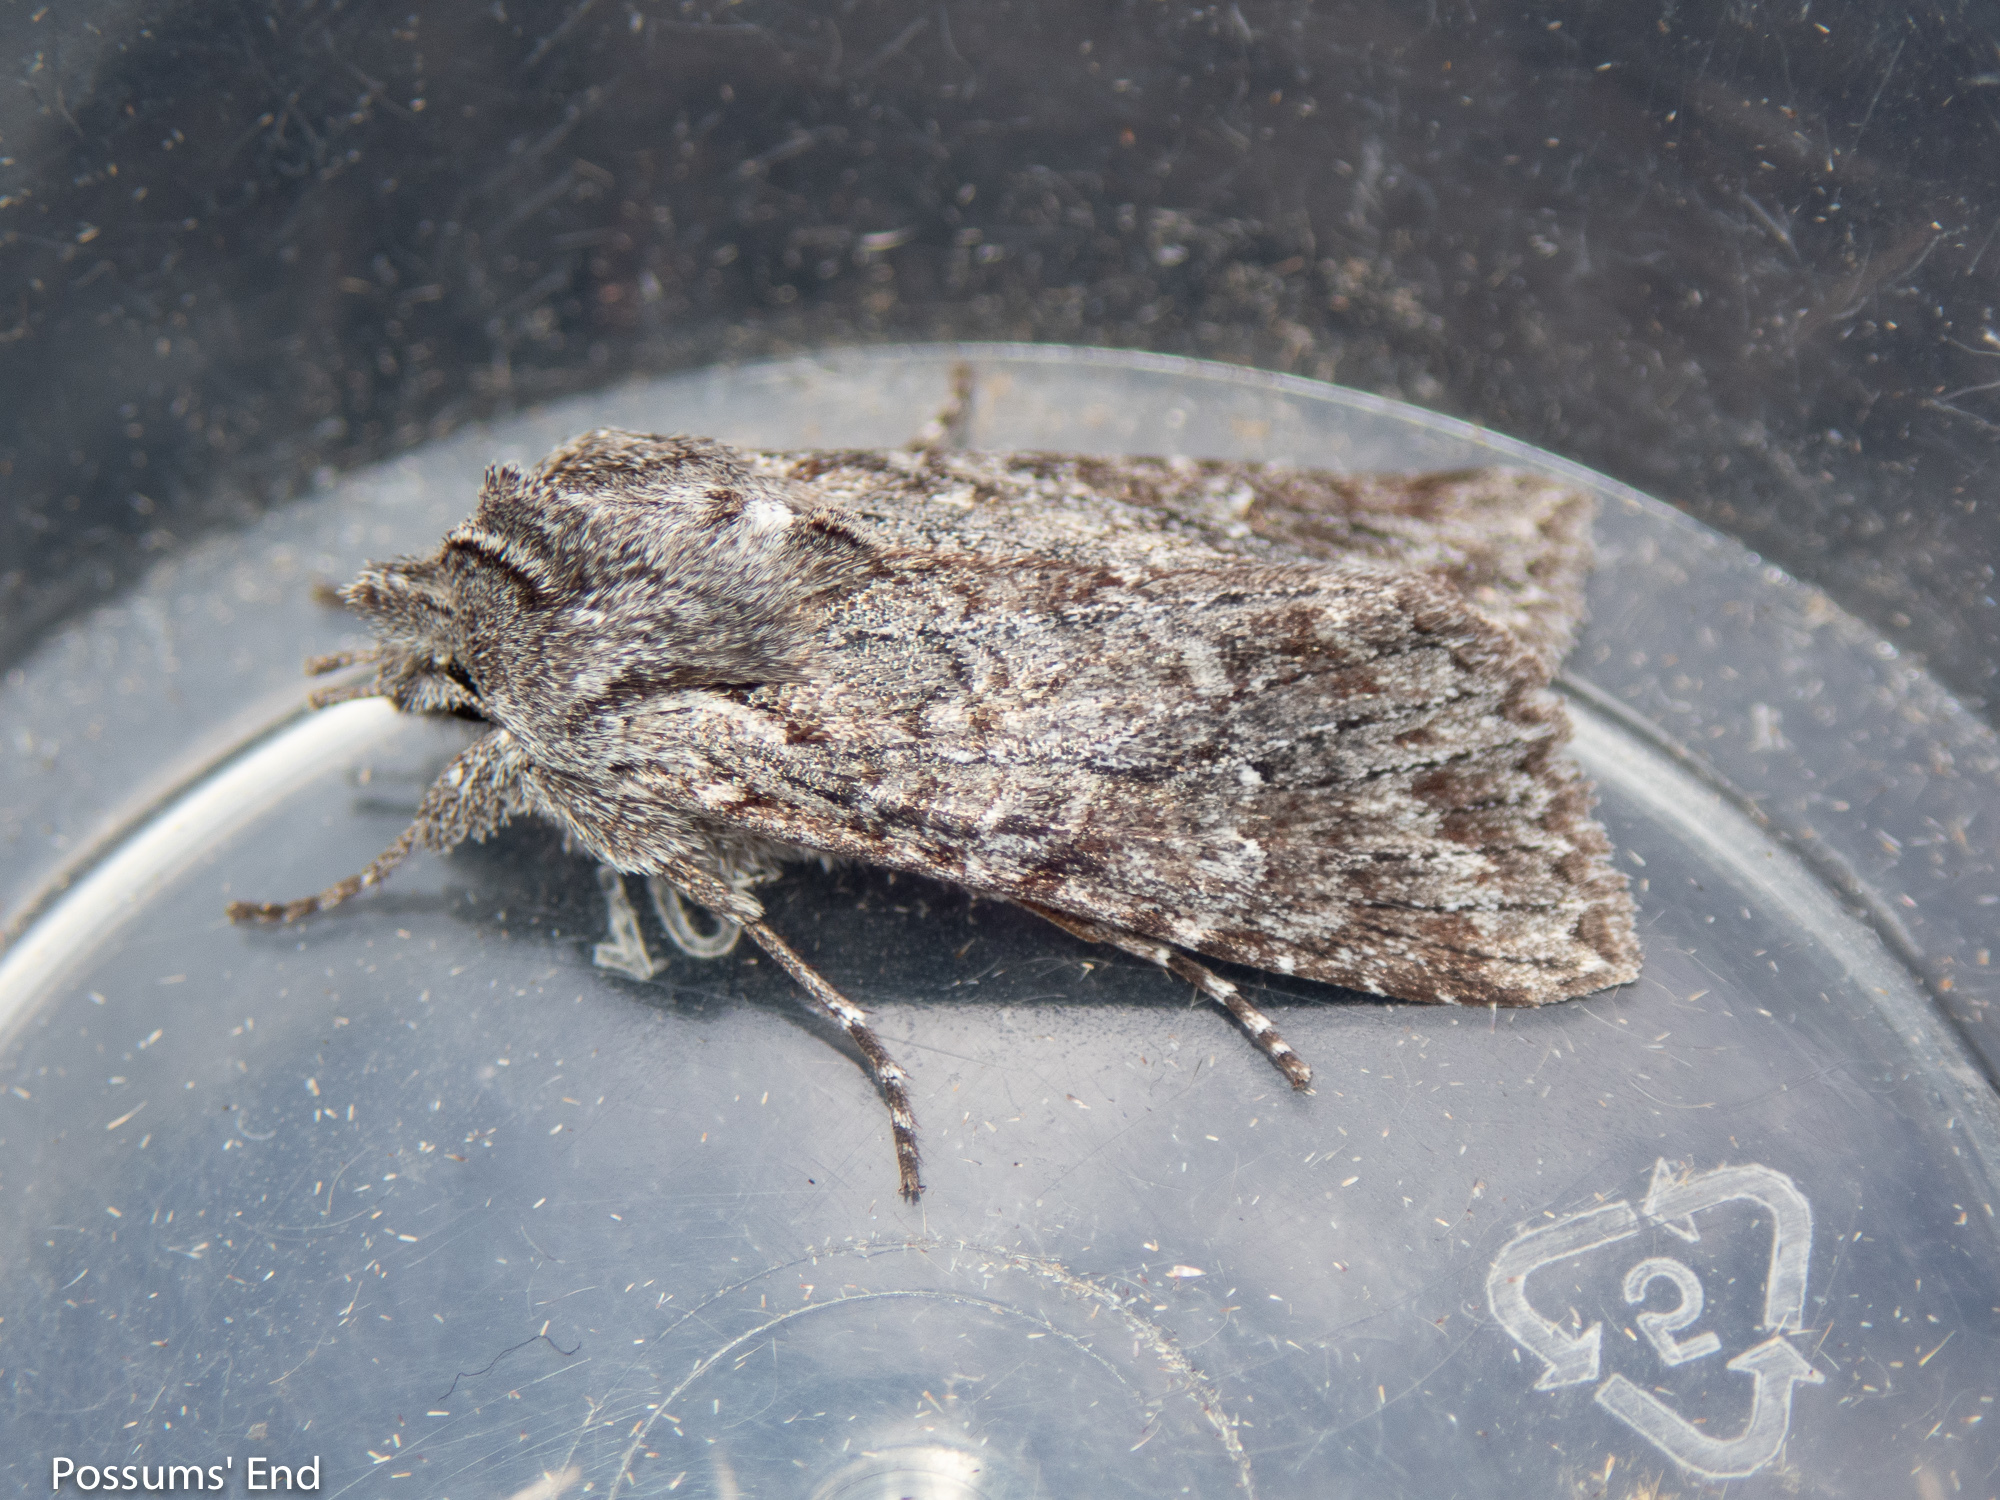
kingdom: Animalia
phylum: Arthropoda
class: Insecta
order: Lepidoptera
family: Noctuidae
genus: Physetica
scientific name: Physetica longstaffii
